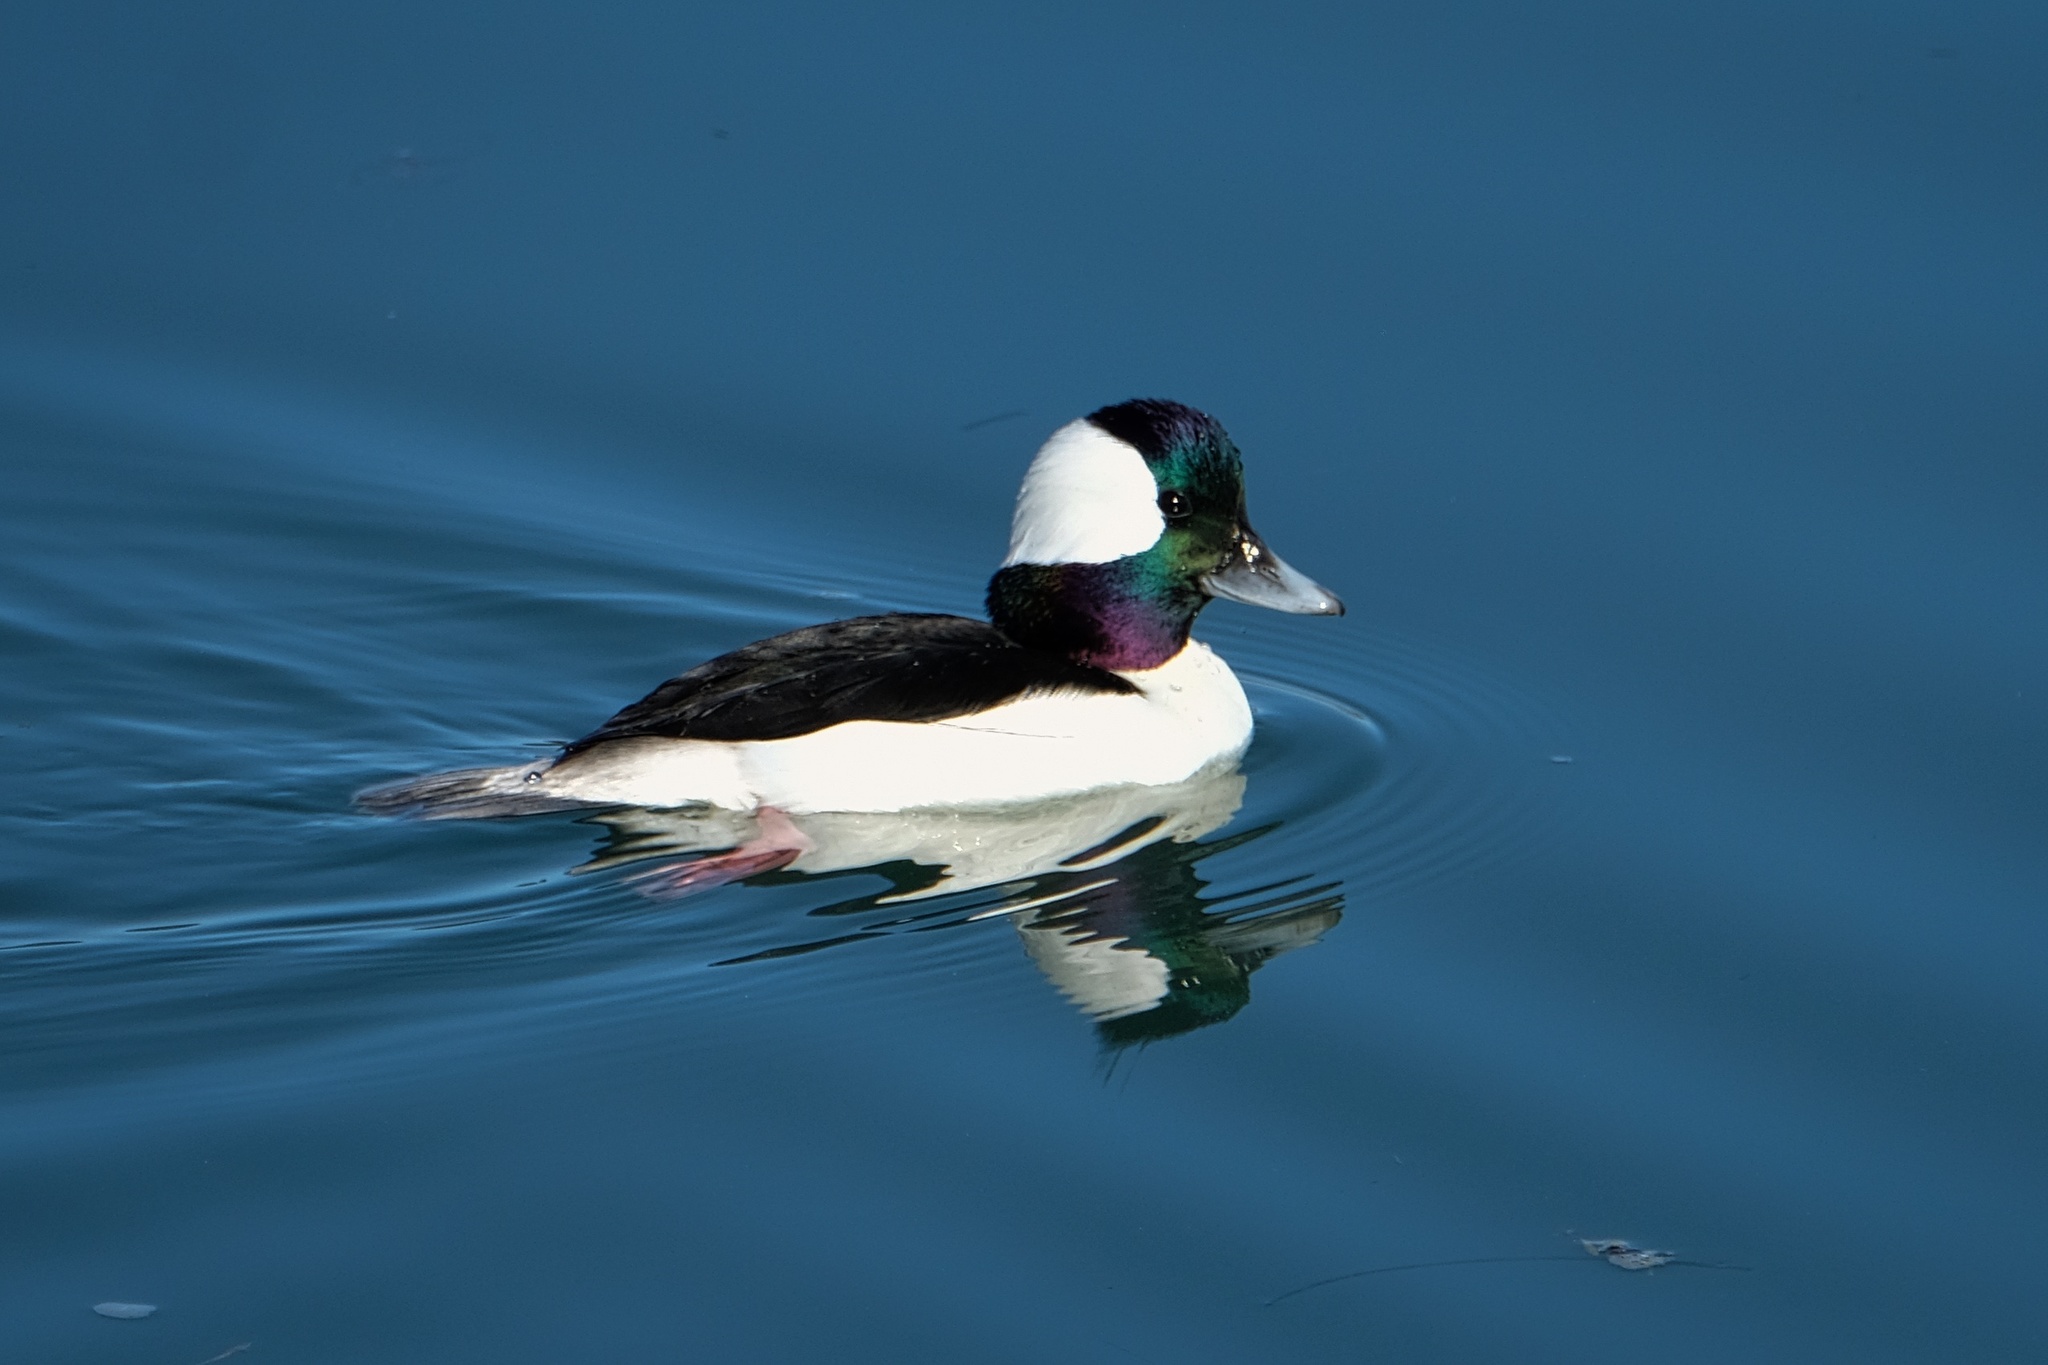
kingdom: Animalia
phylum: Chordata
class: Aves
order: Anseriformes
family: Anatidae
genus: Bucephala
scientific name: Bucephala albeola
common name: Bufflehead
